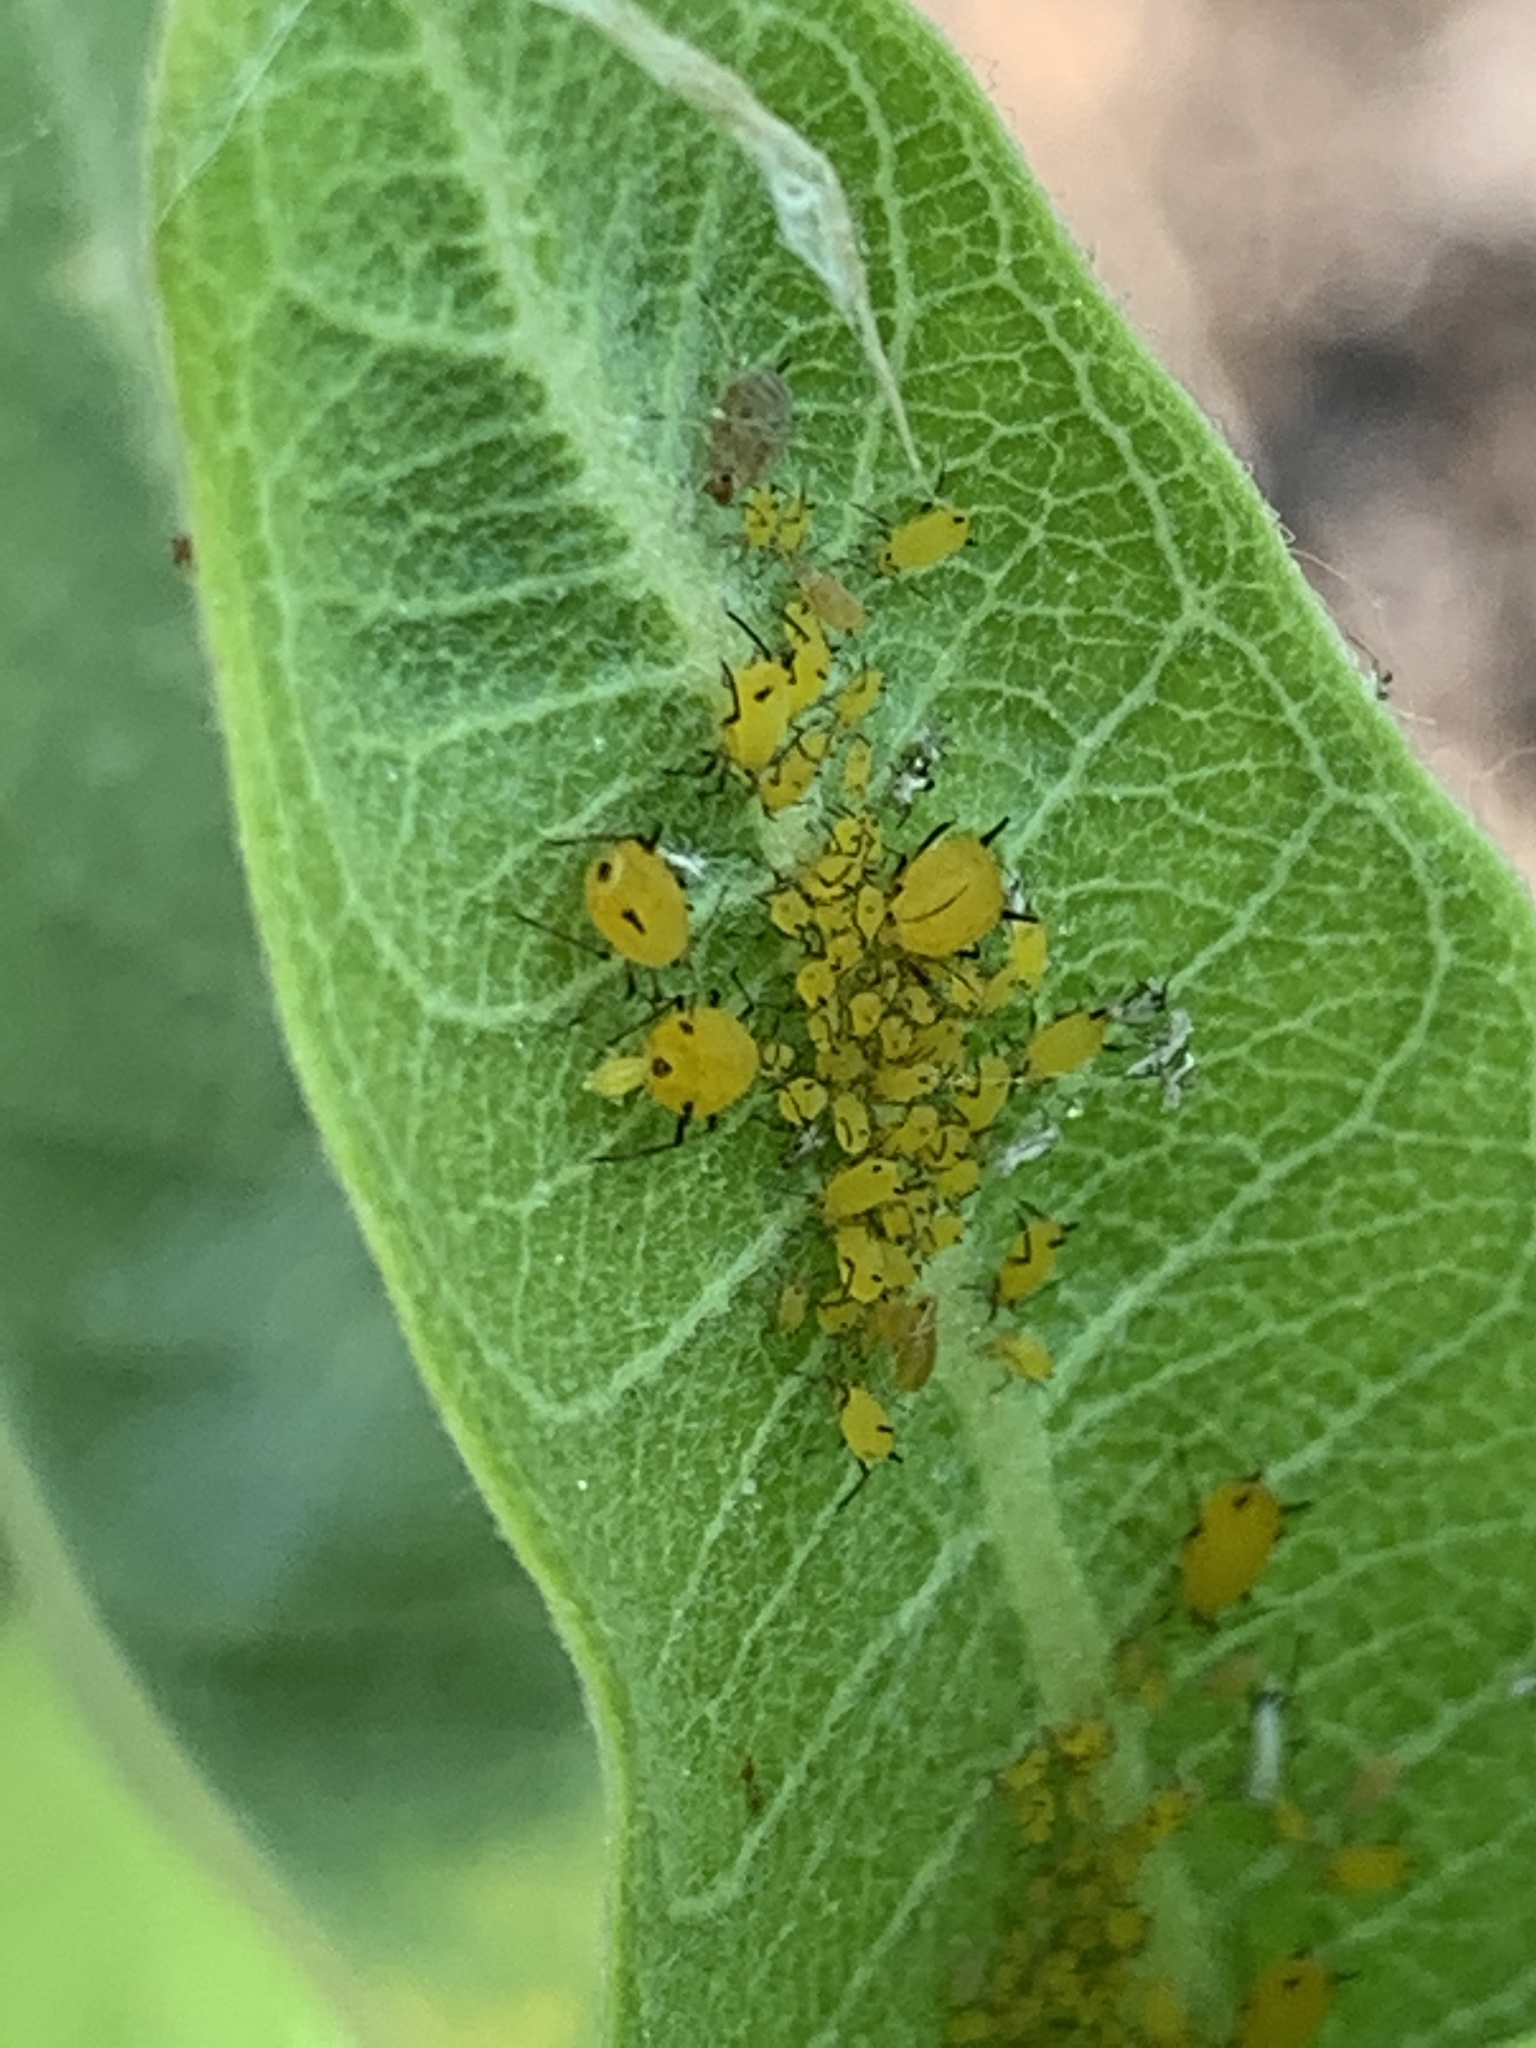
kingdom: Animalia
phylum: Arthropoda
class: Insecta
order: Hemiptera
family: Aphididae
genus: Aphis
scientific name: Aphis nerii
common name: Oleander aphid
